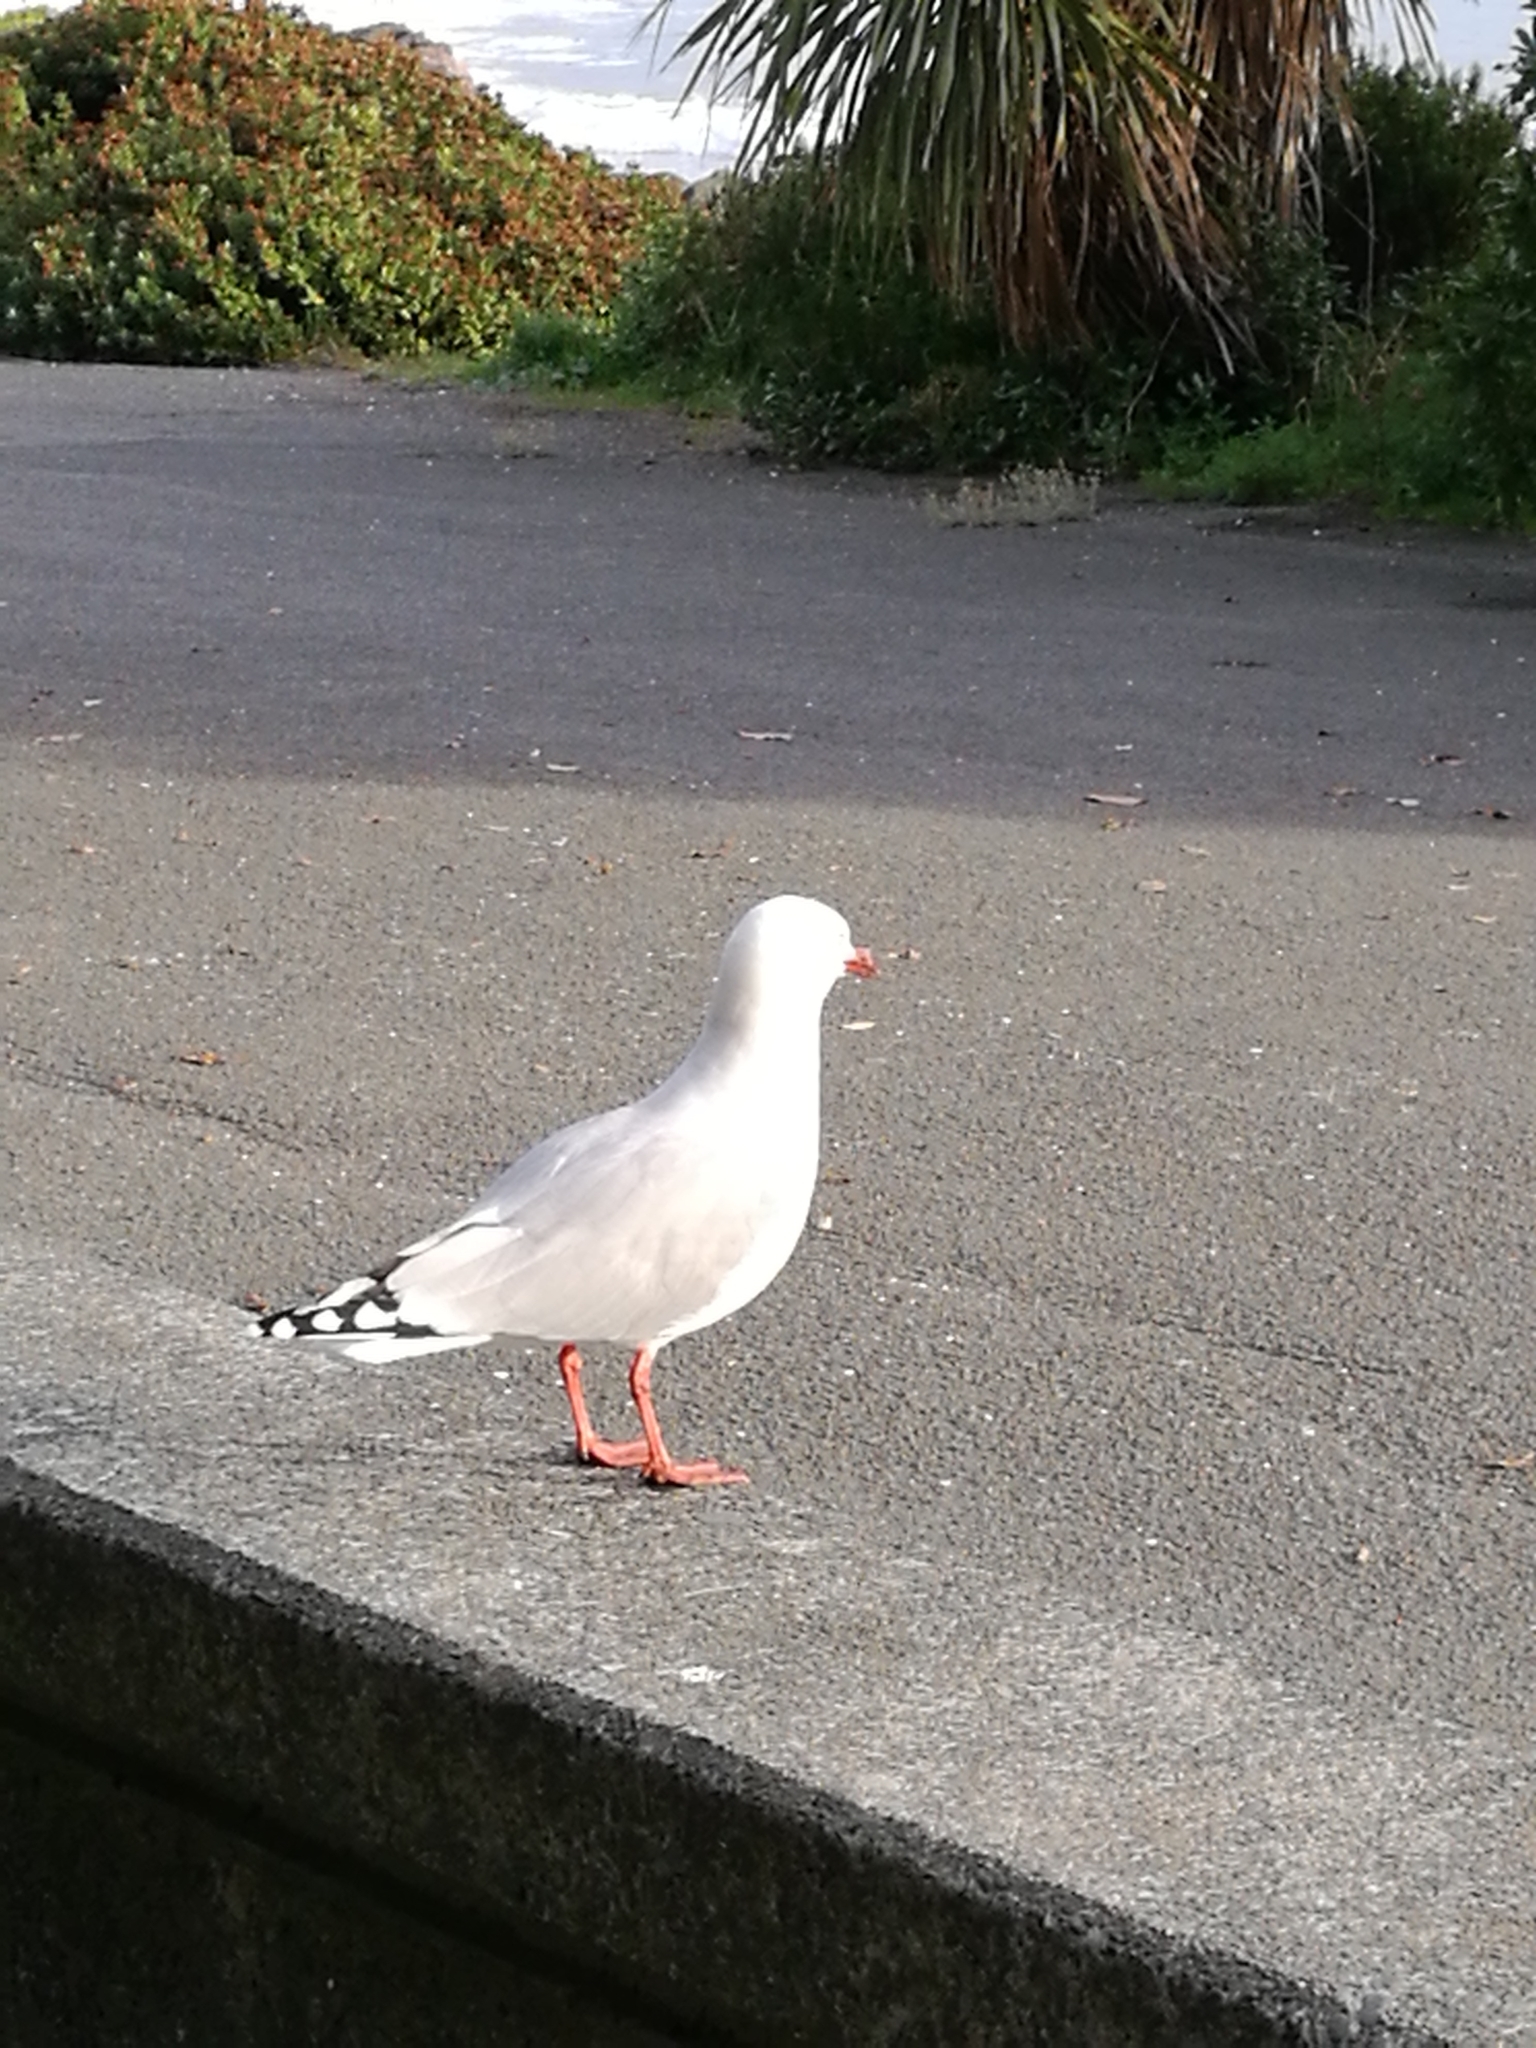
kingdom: Animalia
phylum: Chordata
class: Aves
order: Charadriiformes
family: Laridae
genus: Chroicocephalus
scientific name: Chroicocephalus novaehollandiae
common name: Silver gull
